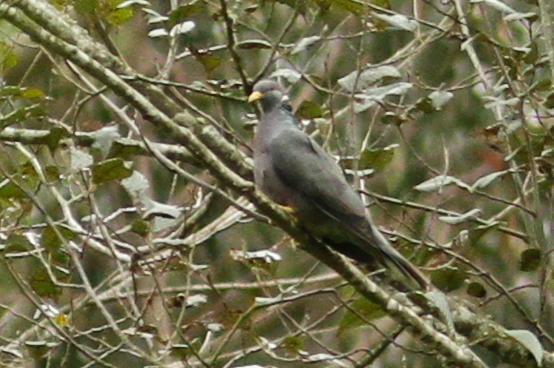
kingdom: Animalia
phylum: Chordata
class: Aves
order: Columbiformes
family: Columbidae
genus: Patagioenas
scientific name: Patagioenas fasciata
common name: Band-tailed pigeon
